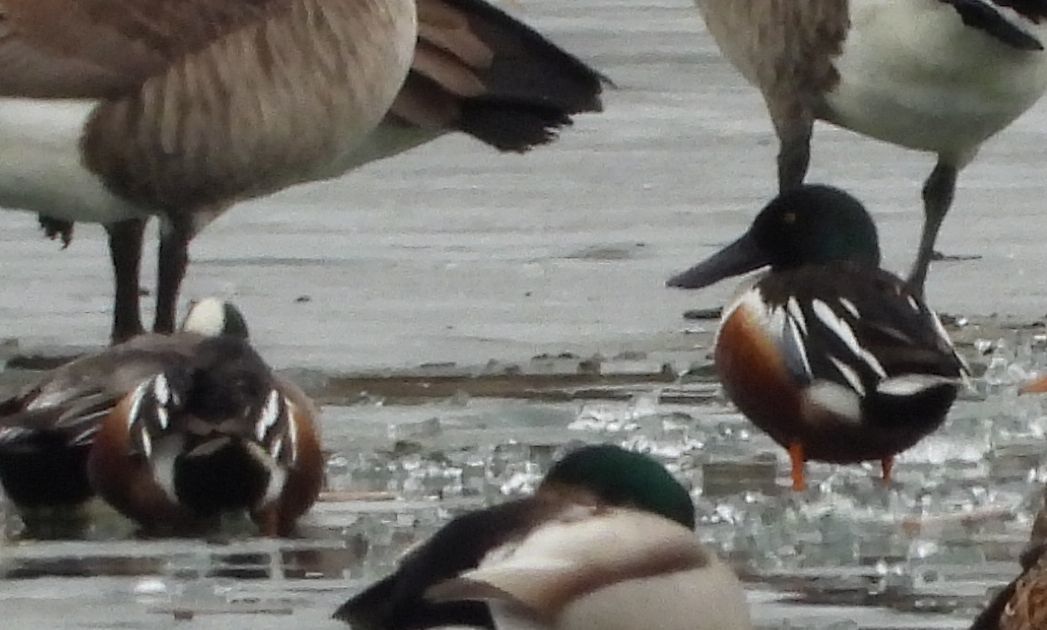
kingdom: Animalia
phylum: Chordata
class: Aves
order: Anseriformes
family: Anatidae
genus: Spatula
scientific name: Spatula clypeata
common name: Northern shoveler
